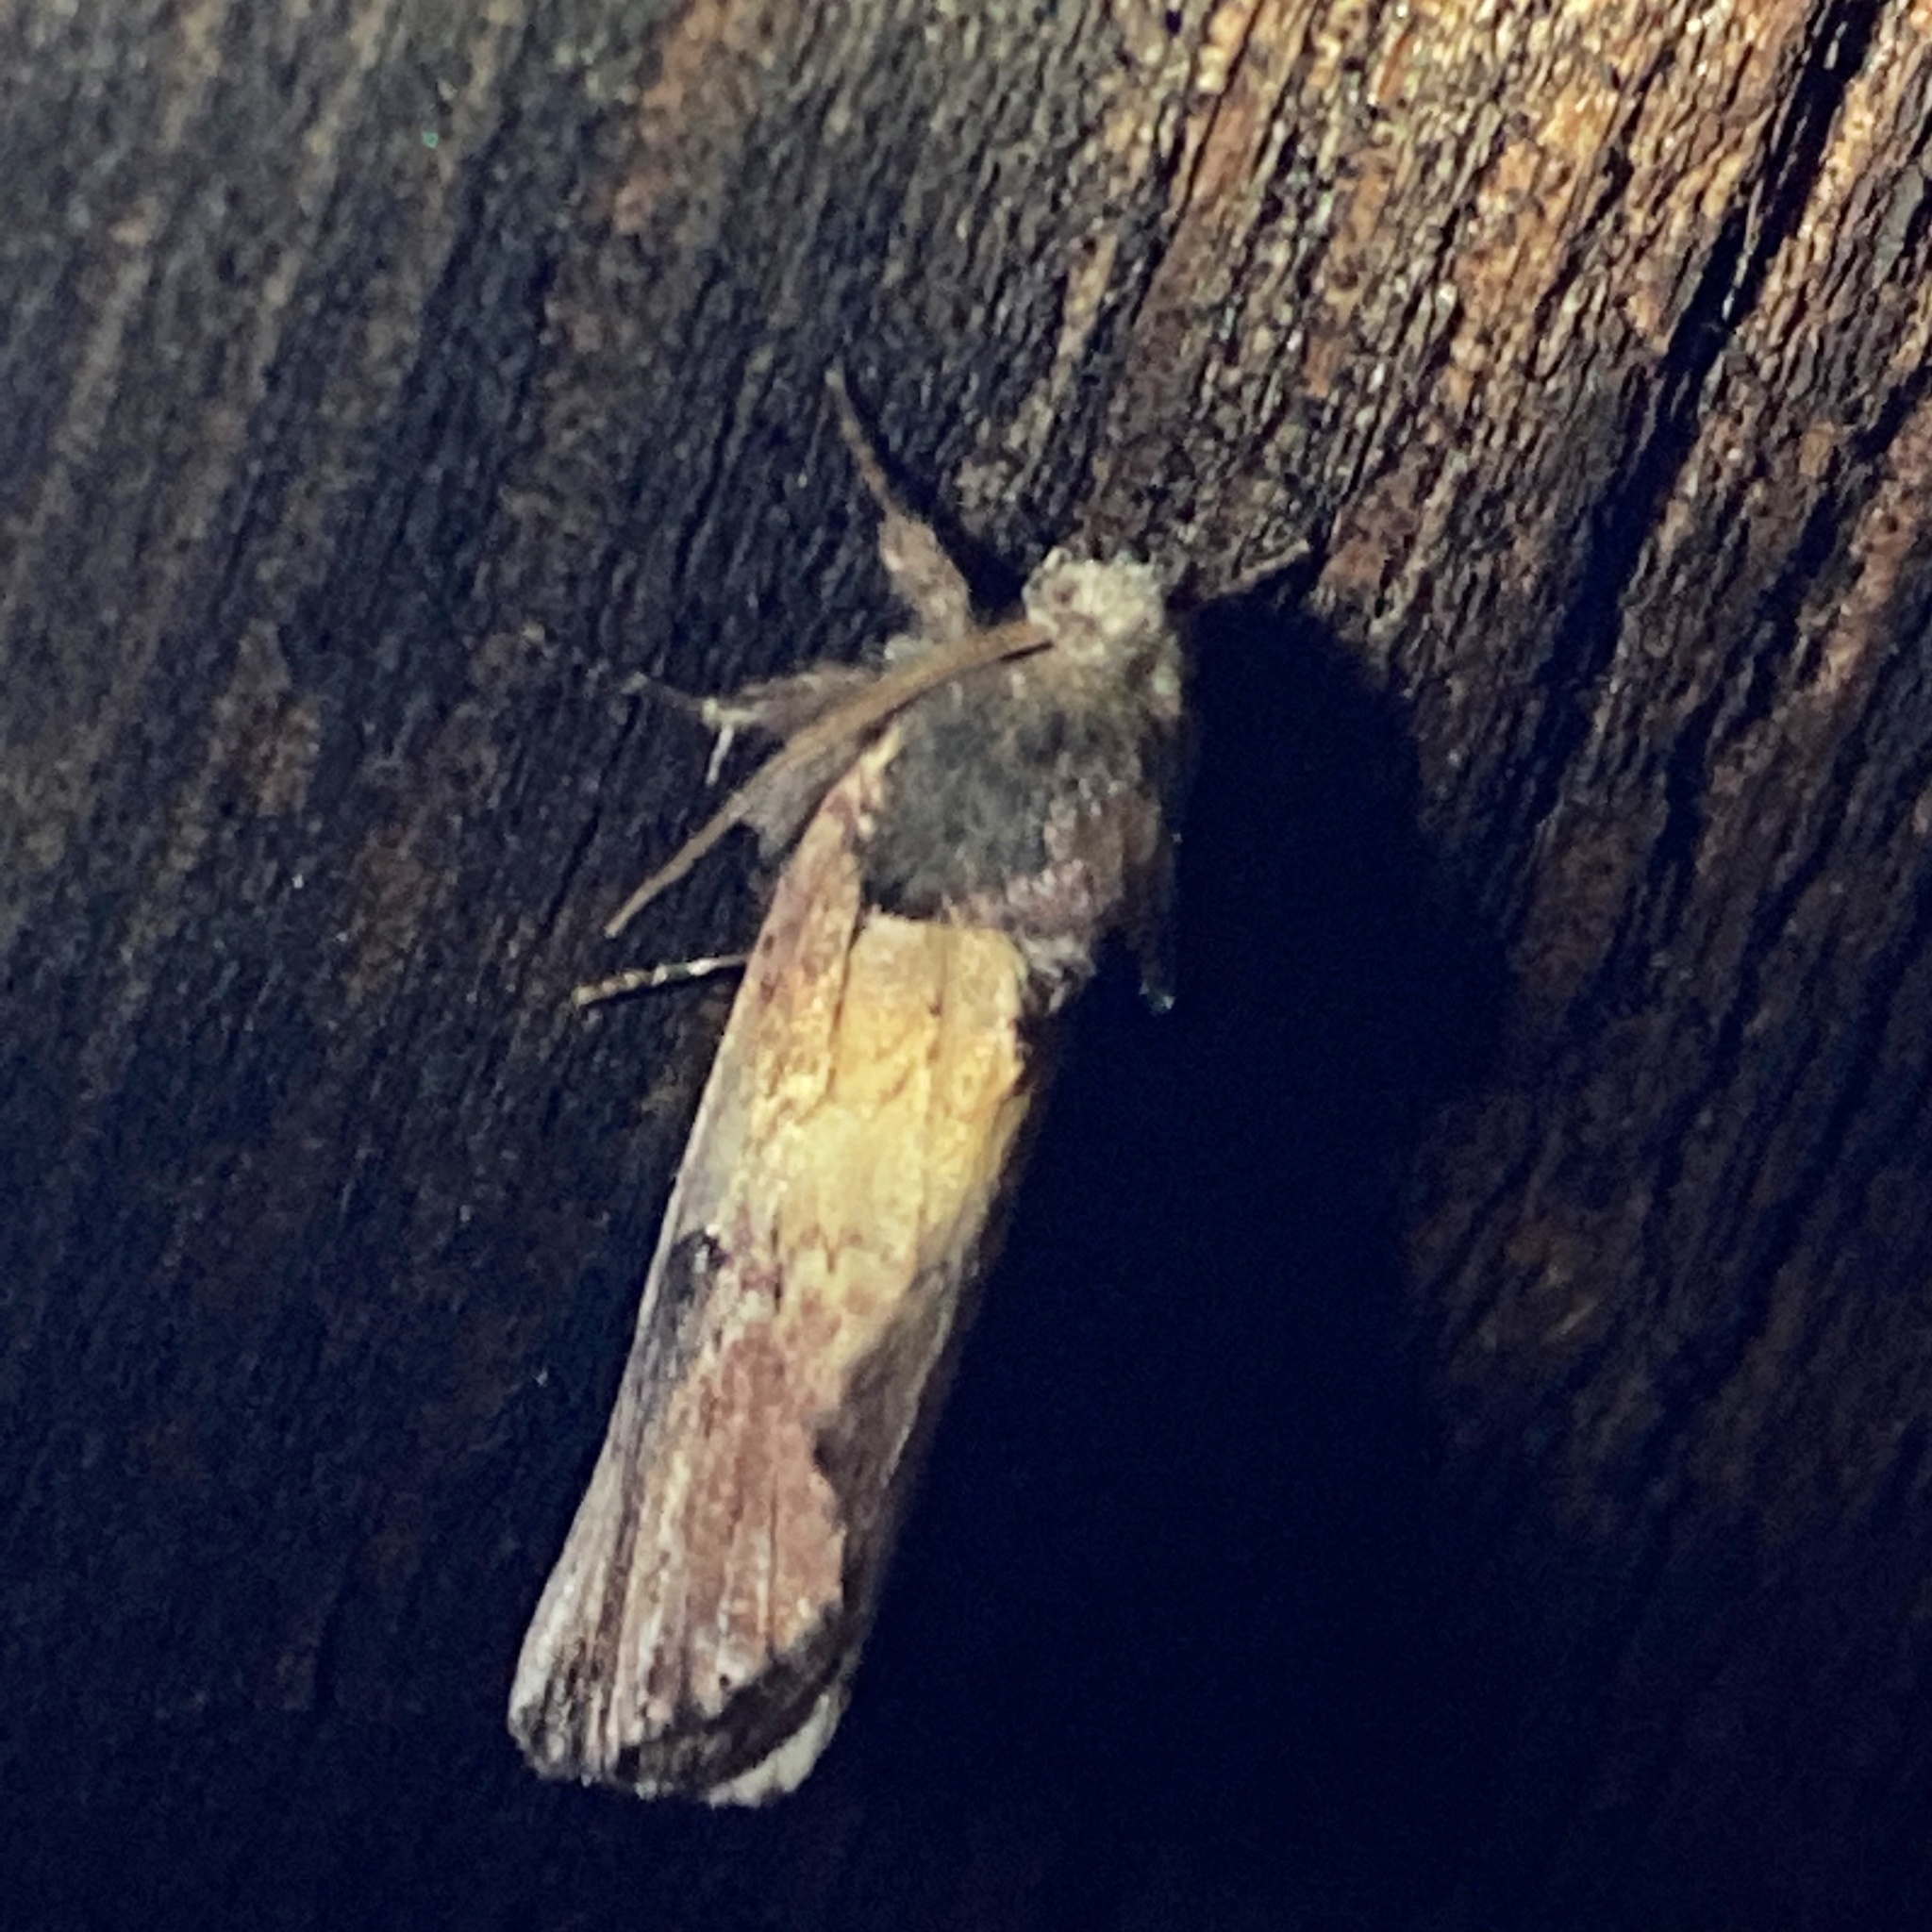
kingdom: Animalia
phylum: Arthropoda
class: Insecta
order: Lepidoptera
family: Notodontidae
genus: Schizura
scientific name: Schizura badia
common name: Chestnut schizura
